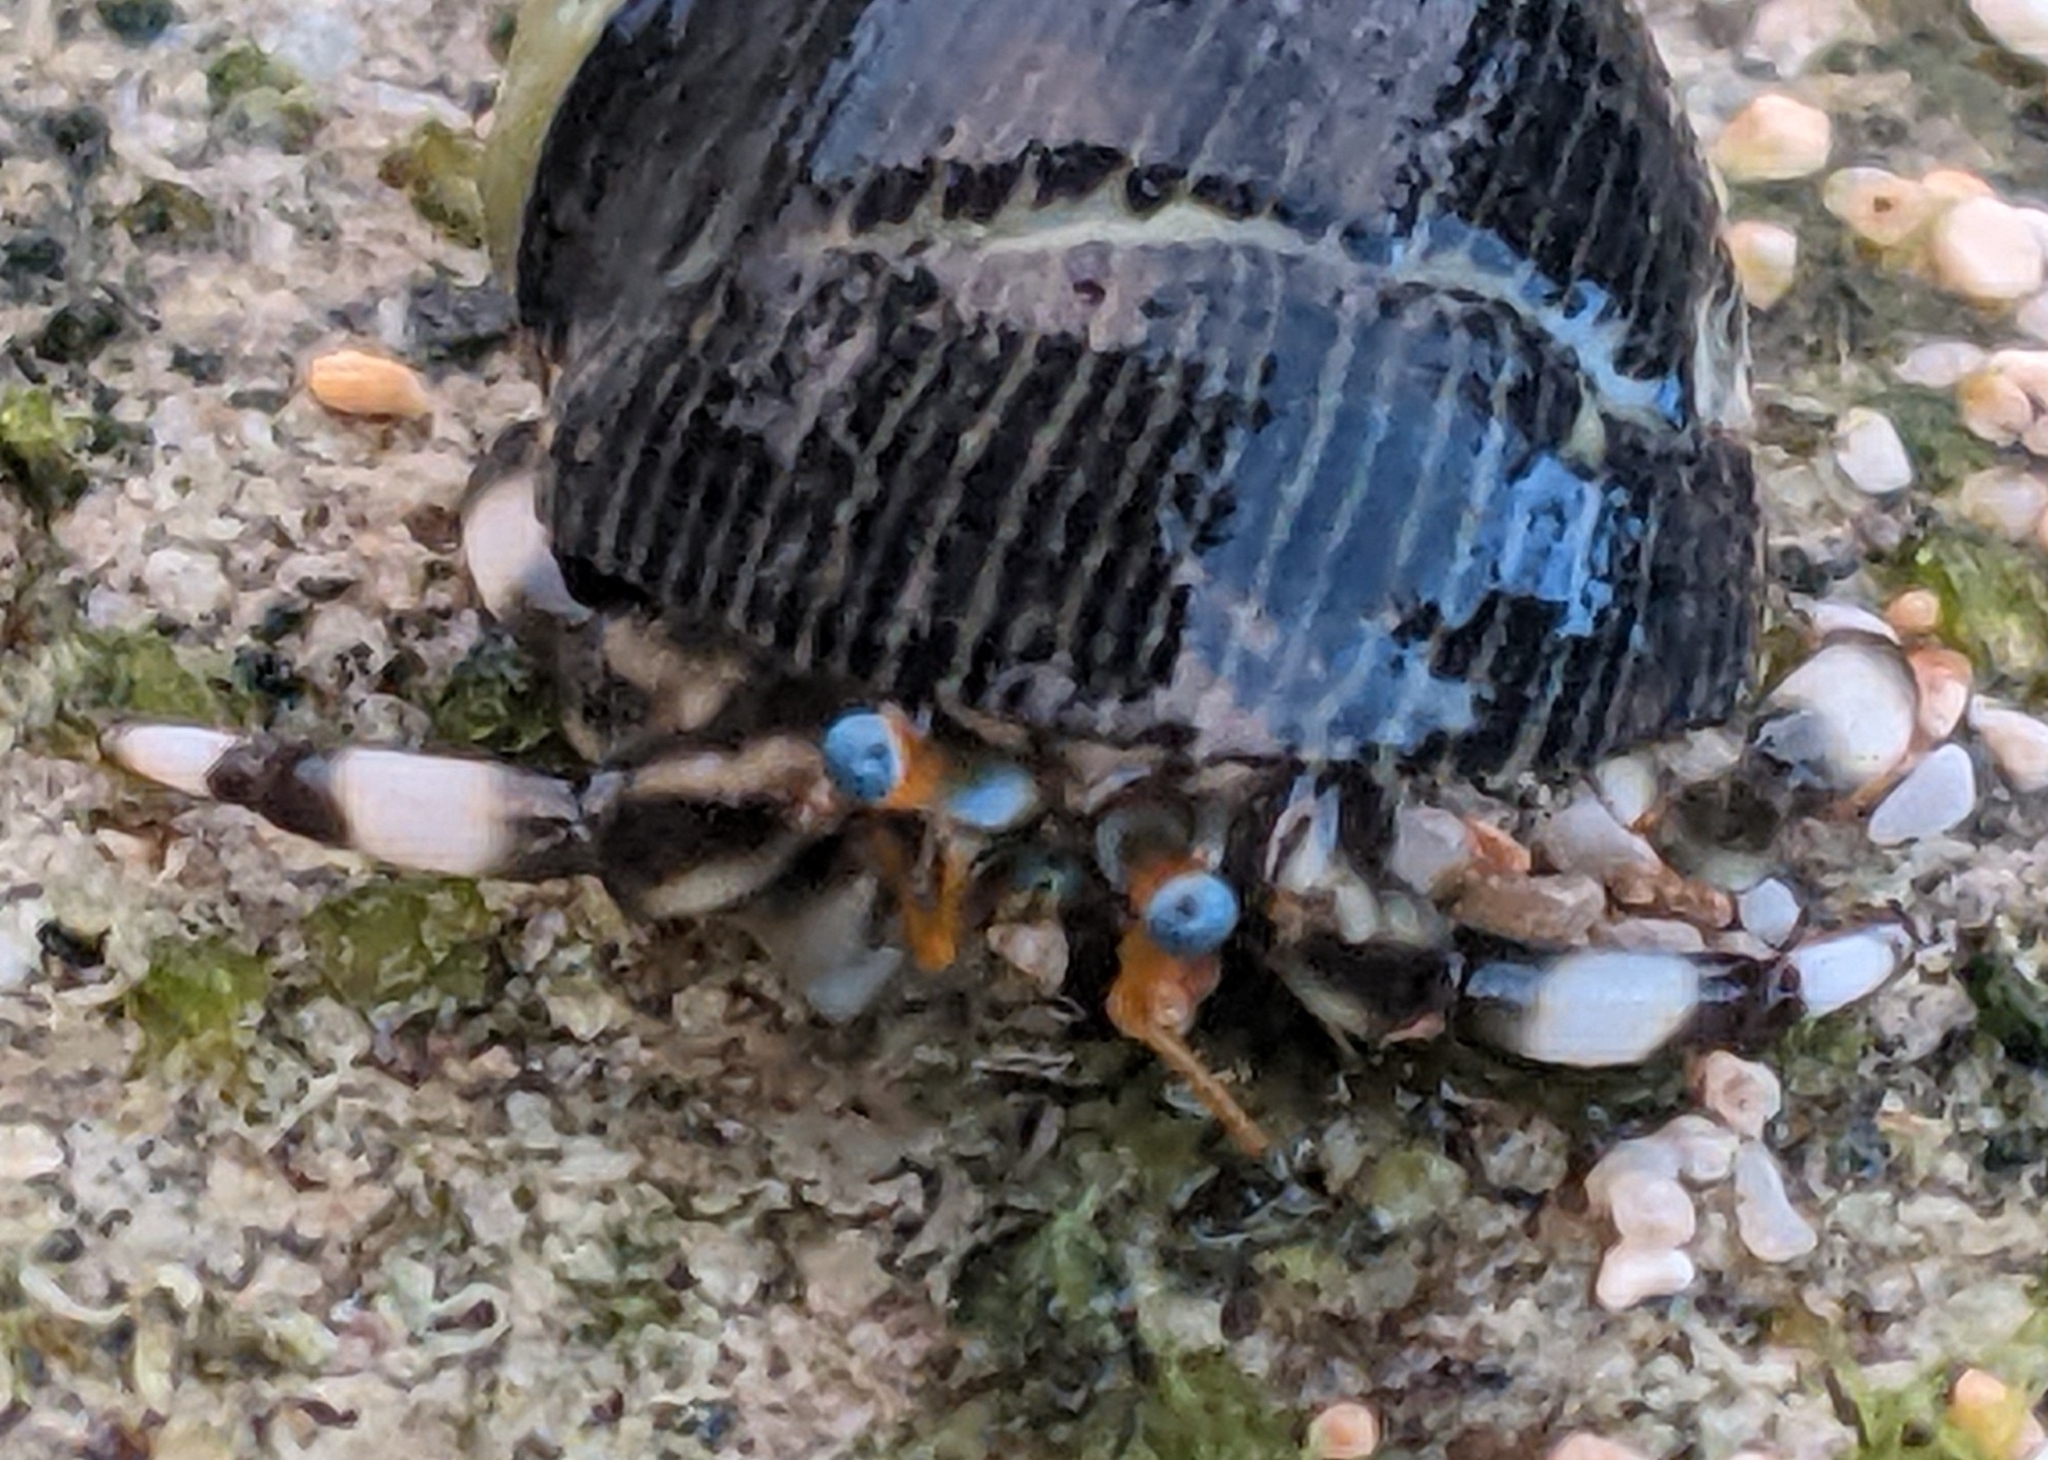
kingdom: Animalia
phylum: Arthropoda
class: Malacostraca
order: Decapoda
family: Diogenidae
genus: Calcinus
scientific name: Calcinus seurati
